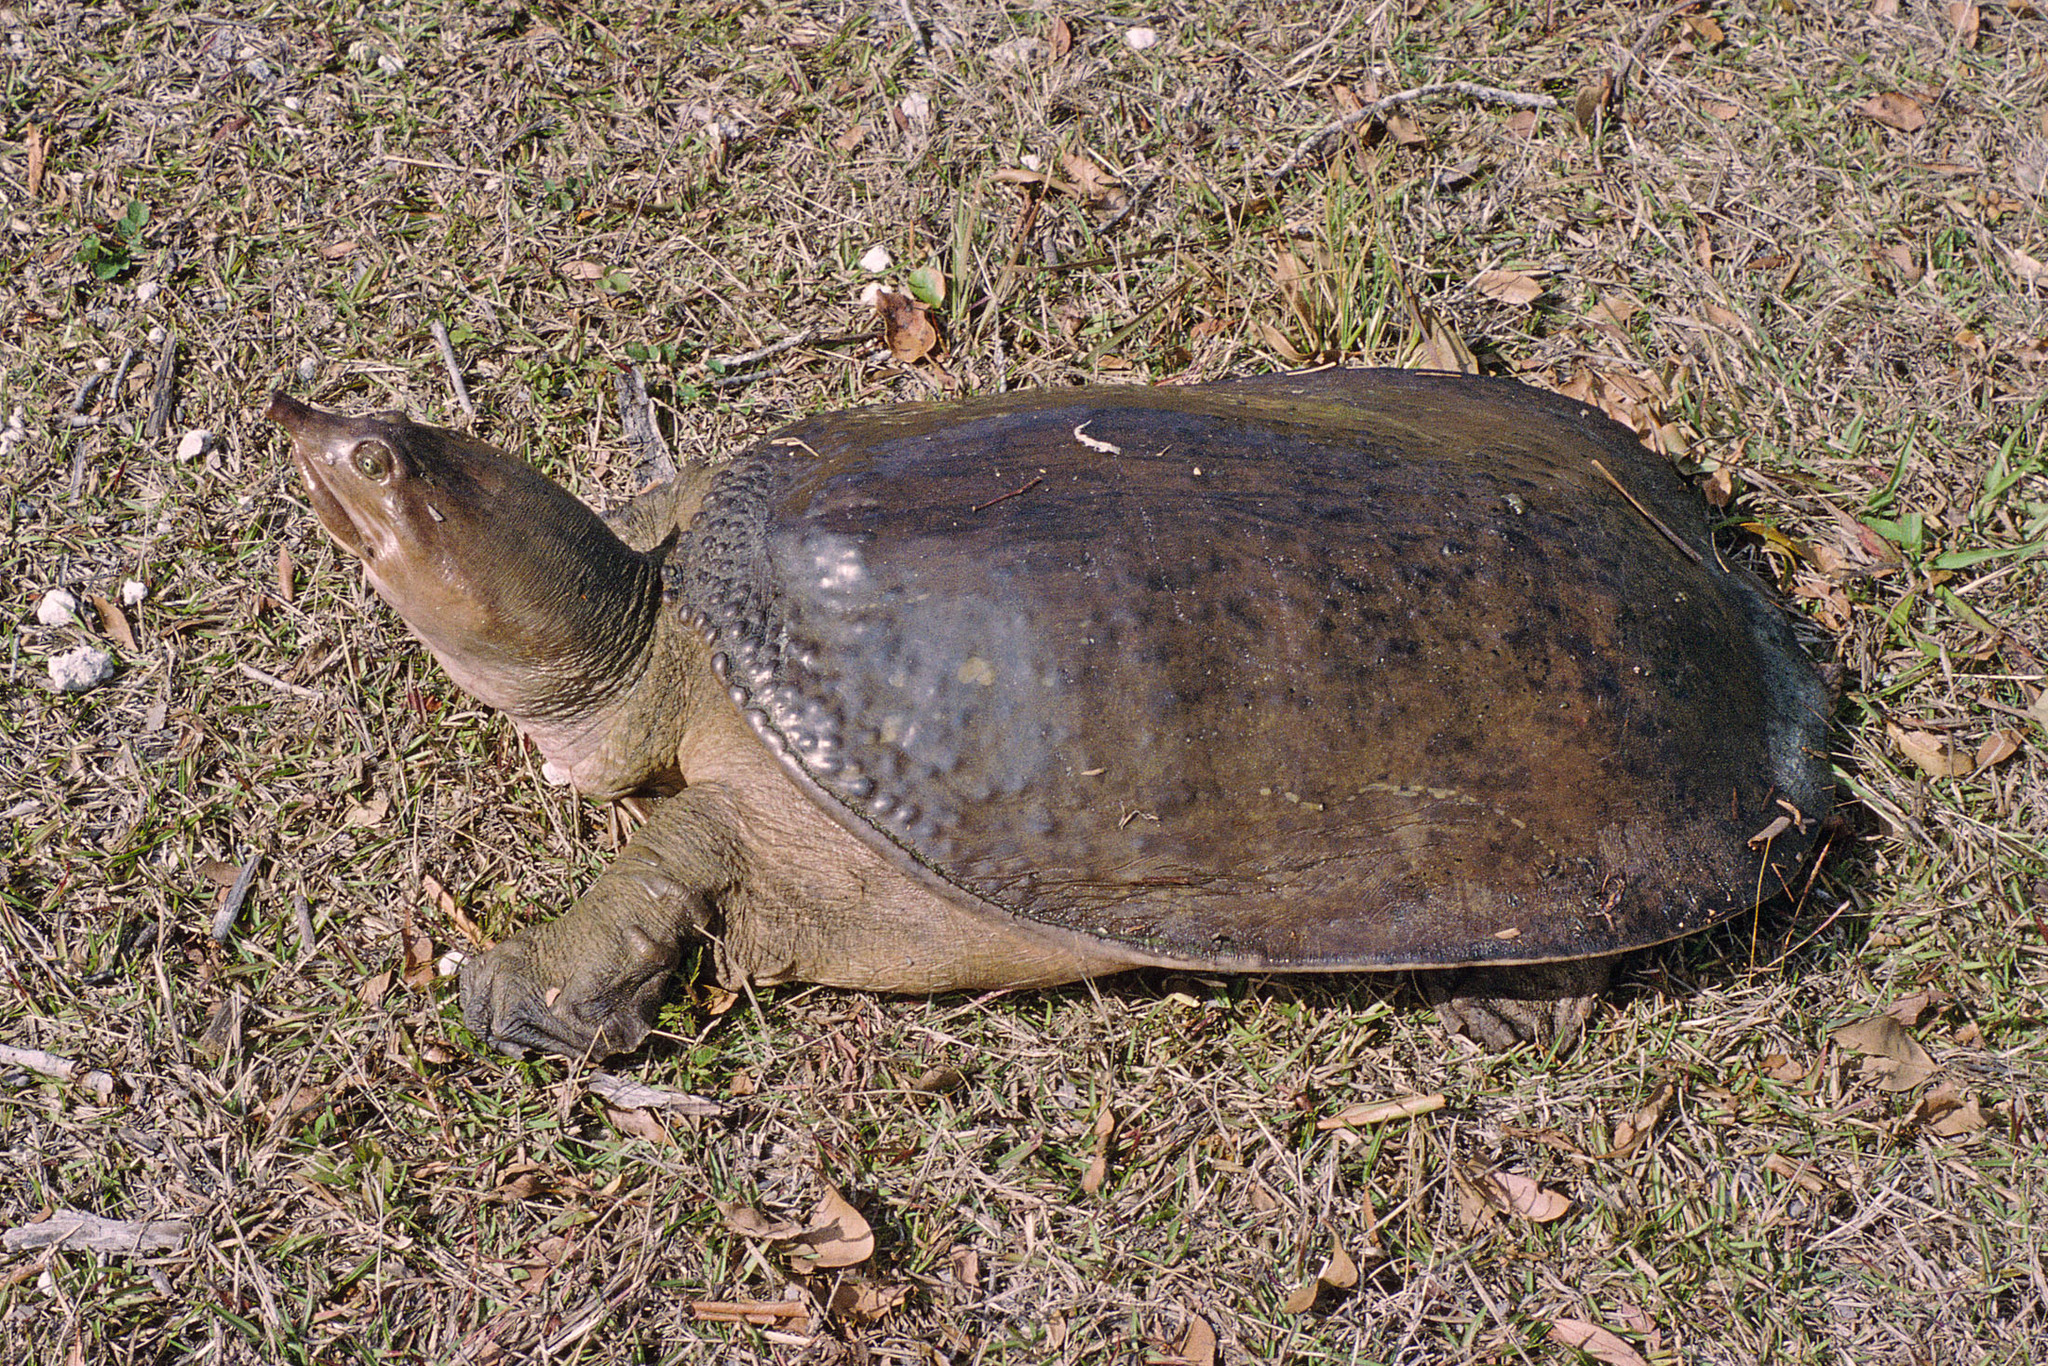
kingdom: Animalia
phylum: Chordata
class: Testudines
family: Trionychidae
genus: Apalone
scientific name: Apalone ferox
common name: Florida softshell turtle
